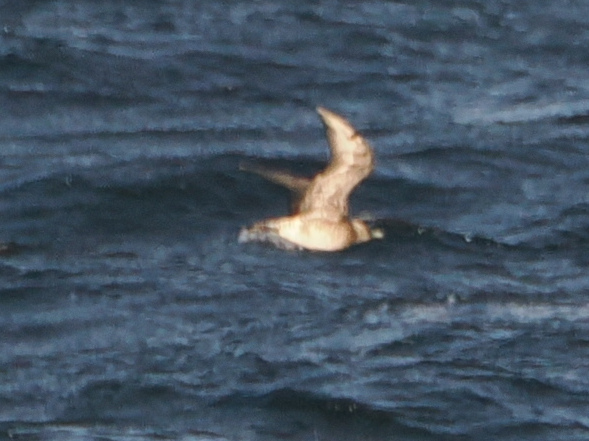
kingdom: Animalia
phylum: Chordata
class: Aves
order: Charadriiformes
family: Stercorariidae
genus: Stercorarius
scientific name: Stercorarius pomarinus
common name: Pomarine jaeger
